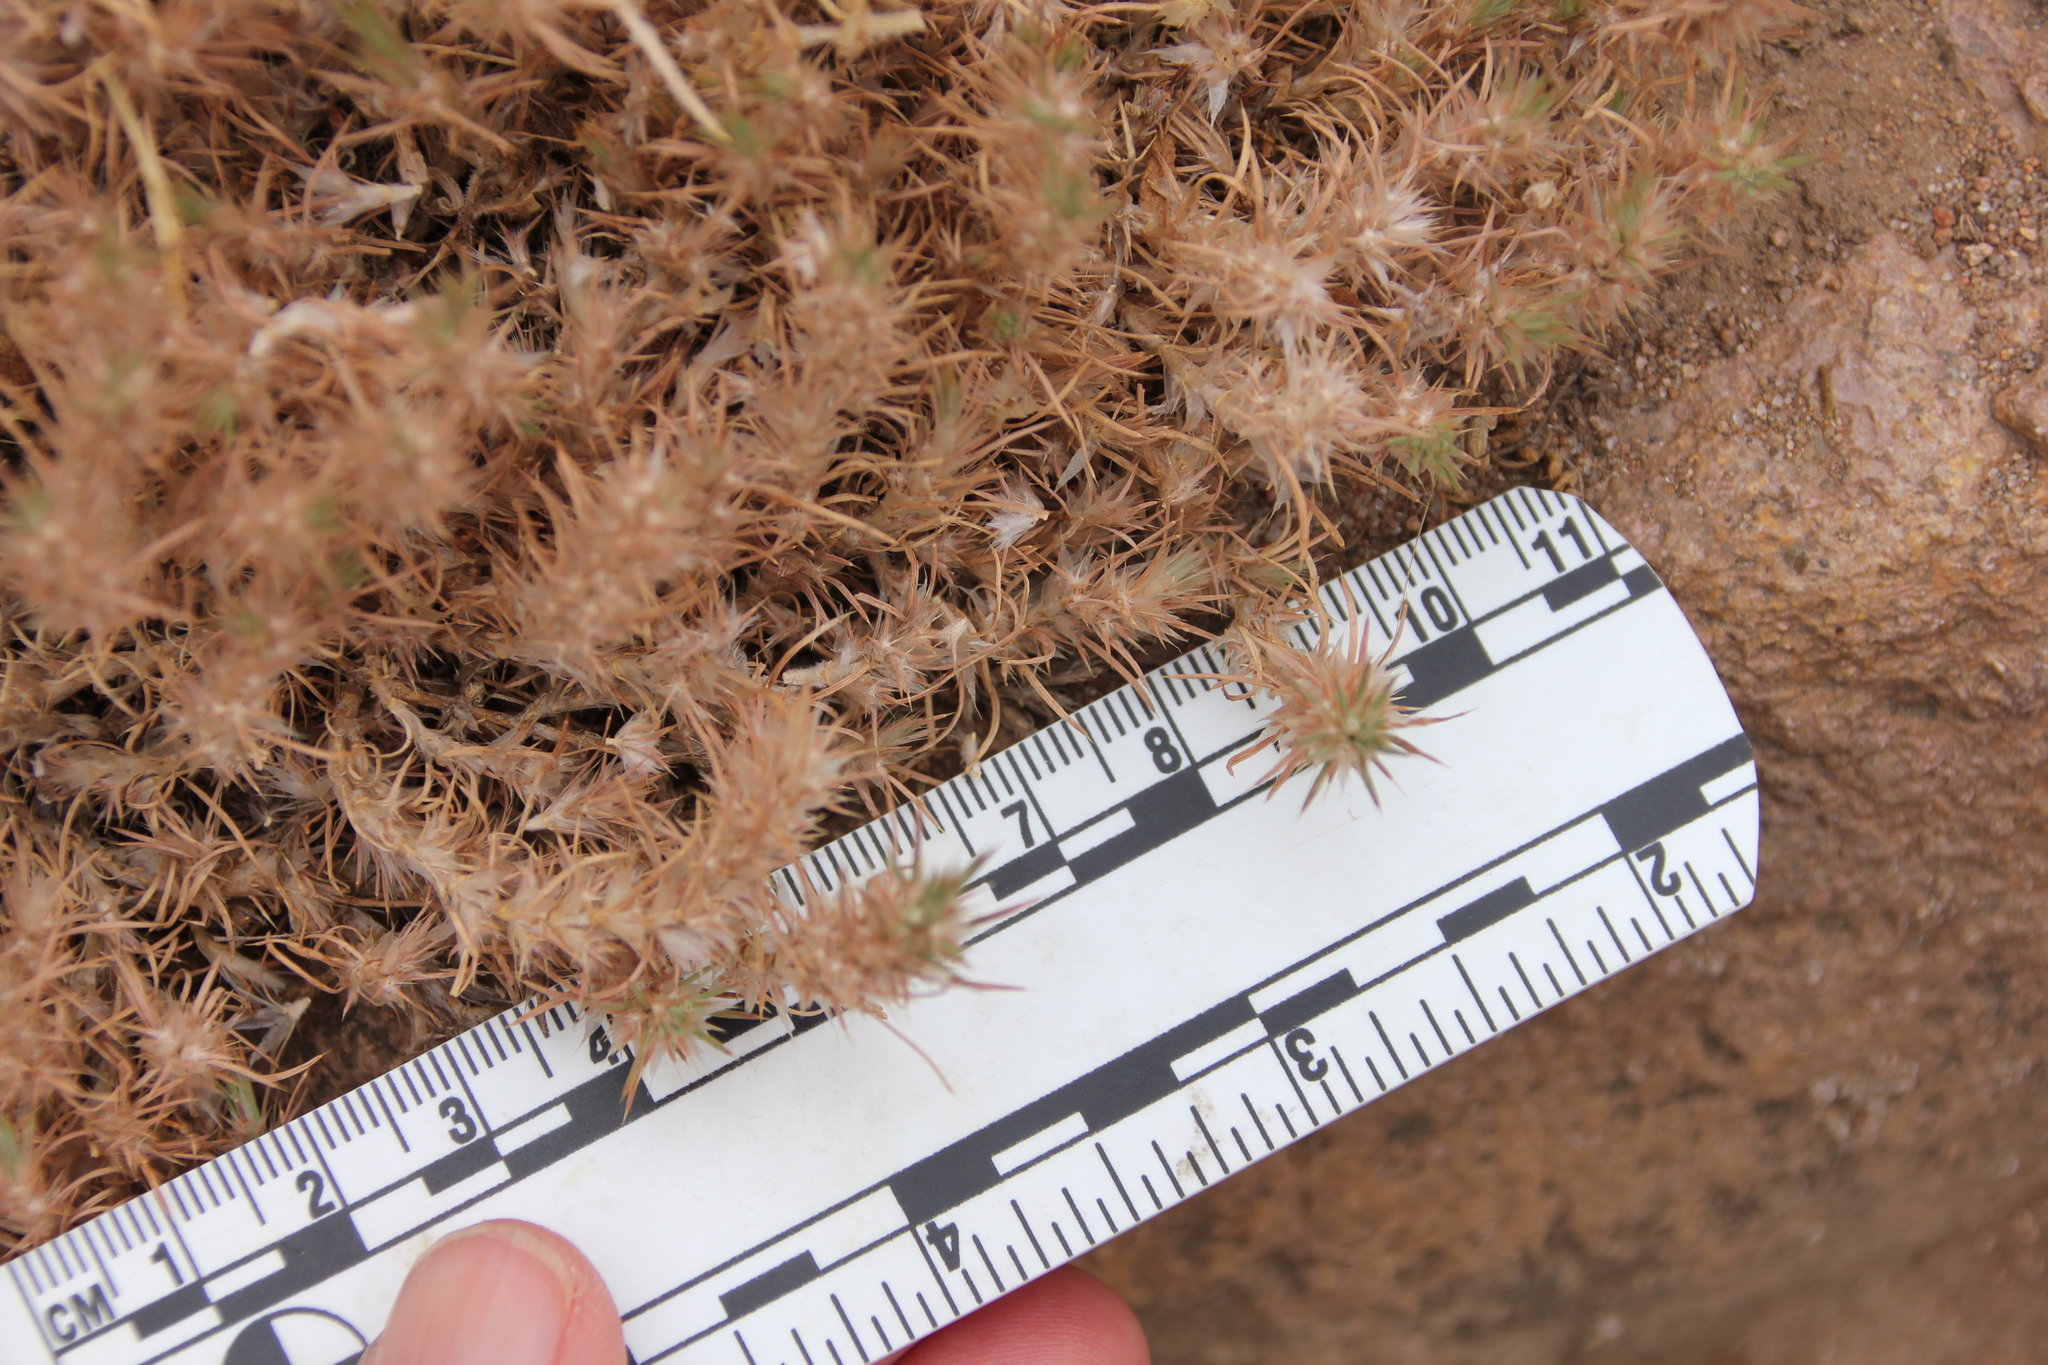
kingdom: Plantae
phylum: Tracheophyta
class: Magnoliopsida
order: Caryophyllales
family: Caryophyllaceae
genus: Cardionema
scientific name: Cardionema ramosissima
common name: Sandcarpet
